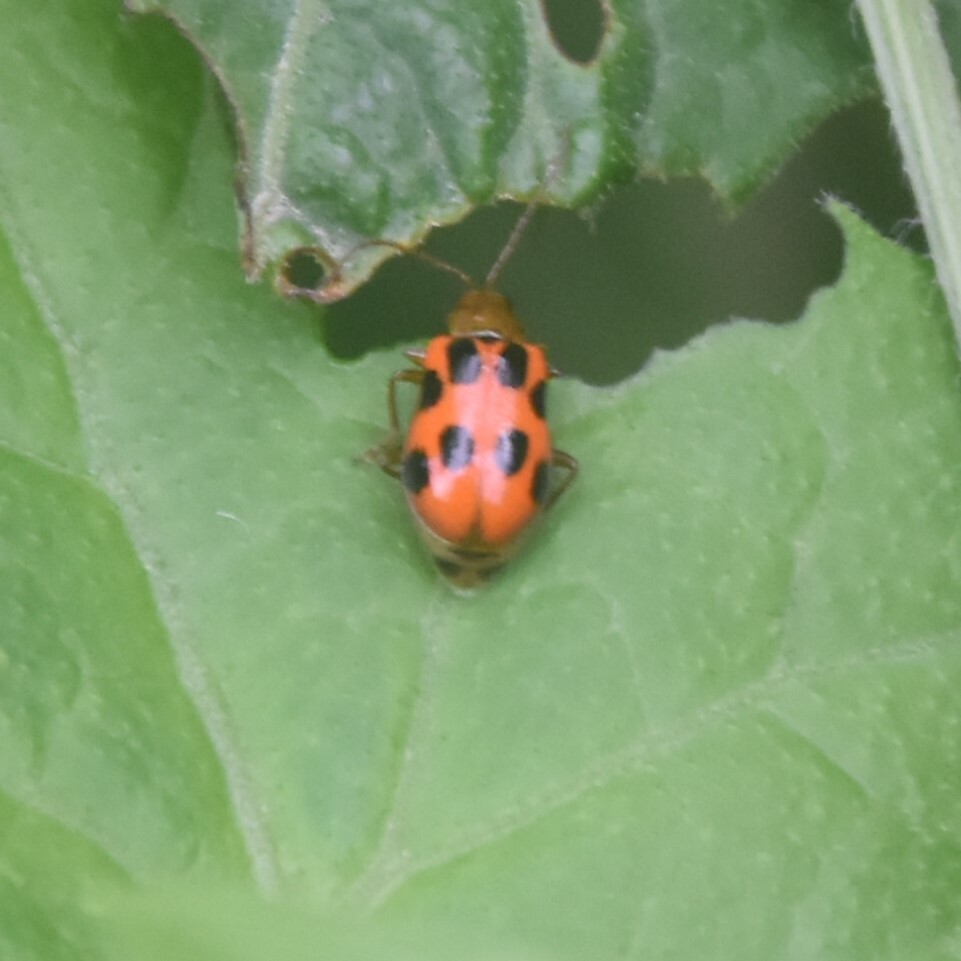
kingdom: Animalia
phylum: Arthropoda
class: Insecta
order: Coleoptera
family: Chrysomelidae
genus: Paridea
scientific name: Paridea
